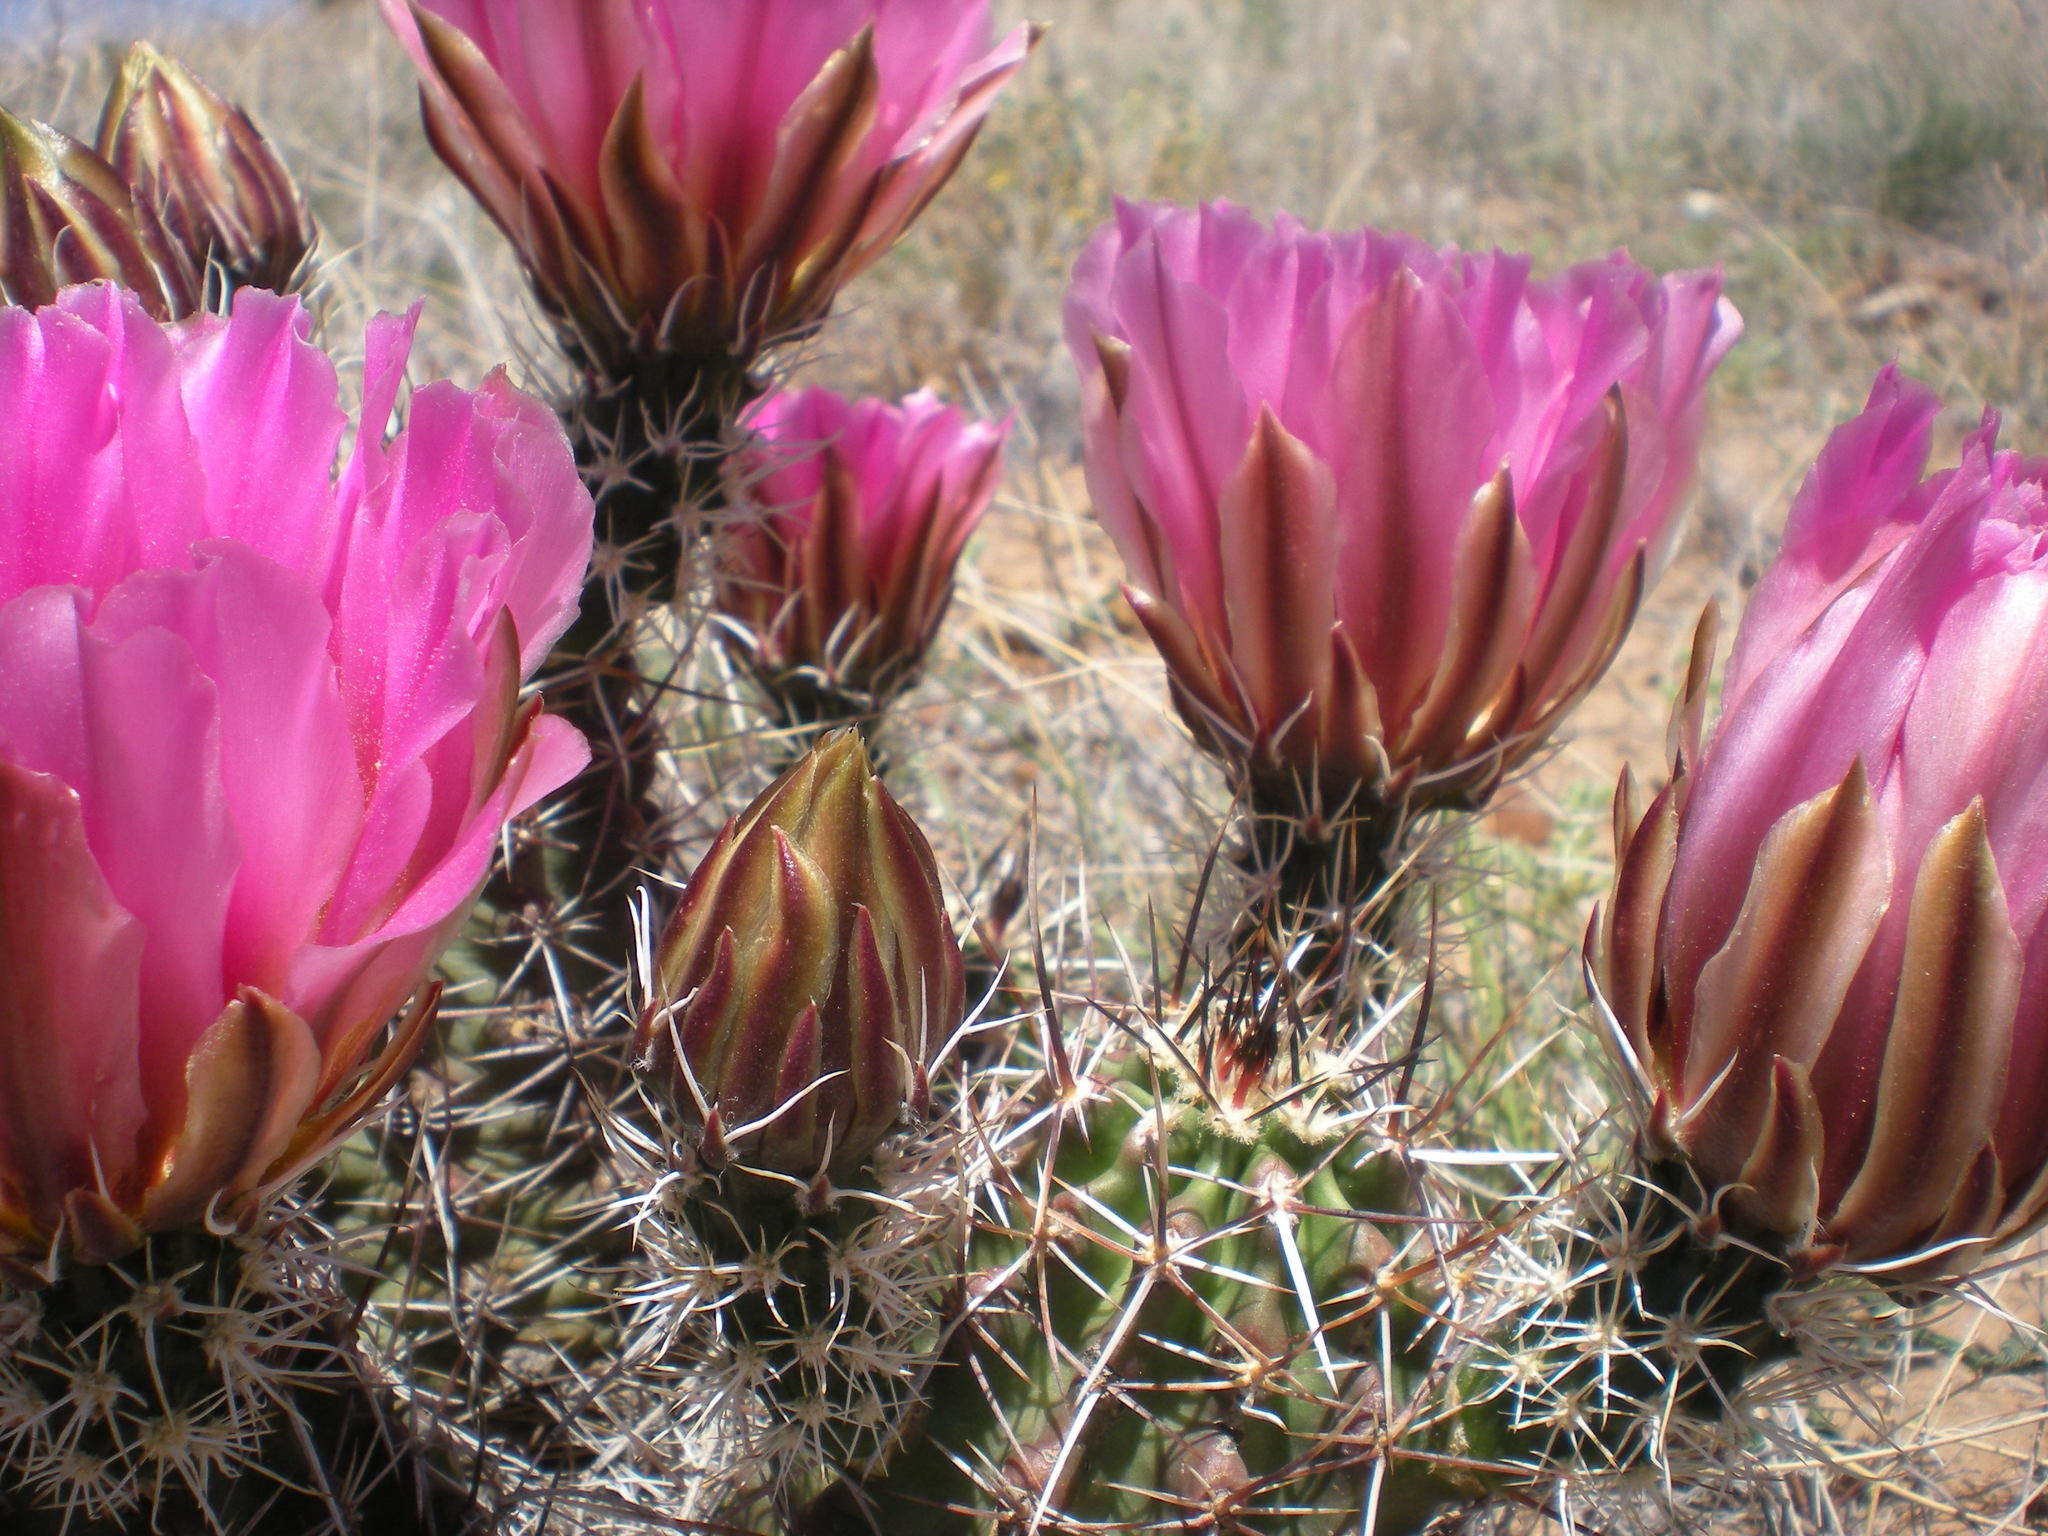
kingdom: Plantae
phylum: Tracheophyta
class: Magnoliopsida
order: Caryophyllales
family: Cactaceae
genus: Echinocereus
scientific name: Echinocereus fendleri
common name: Fendler's hedgehog cactus
